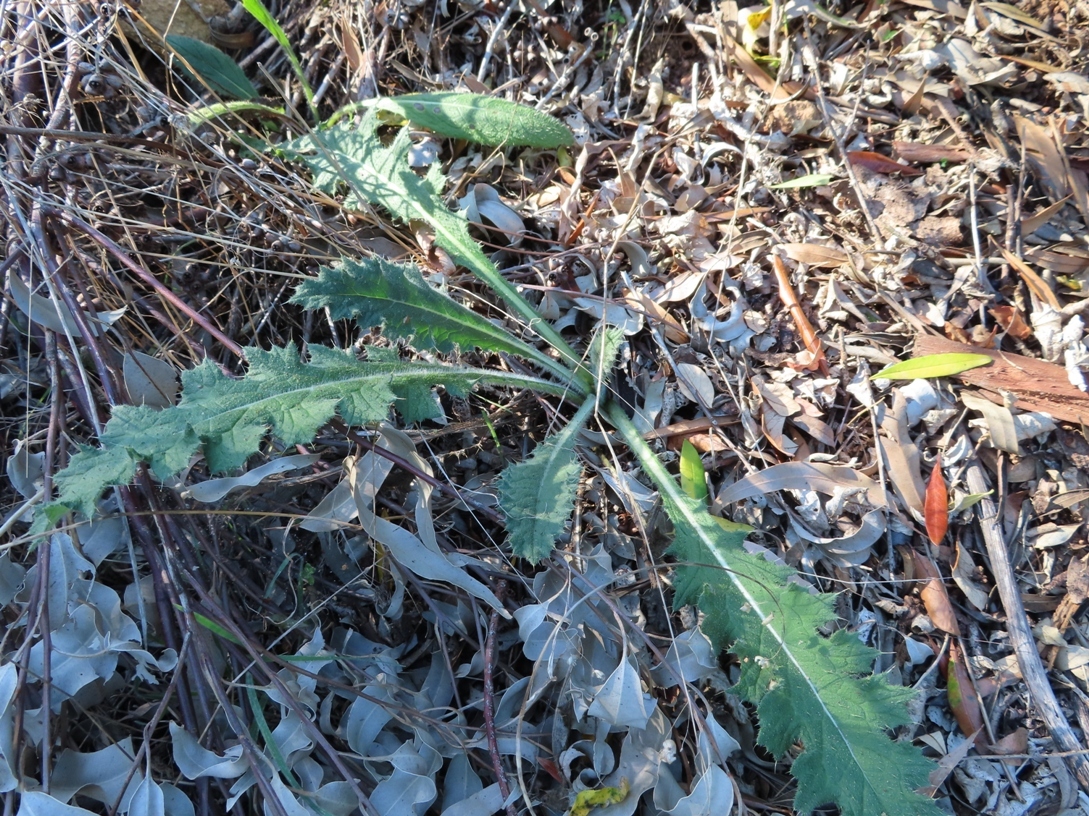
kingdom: Plantae
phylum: Tracheophyta
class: Magnoliopsida
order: Asterales
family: Asteraceae
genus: Cirsium
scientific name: Cirsium vulgare
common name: Bull thistle
